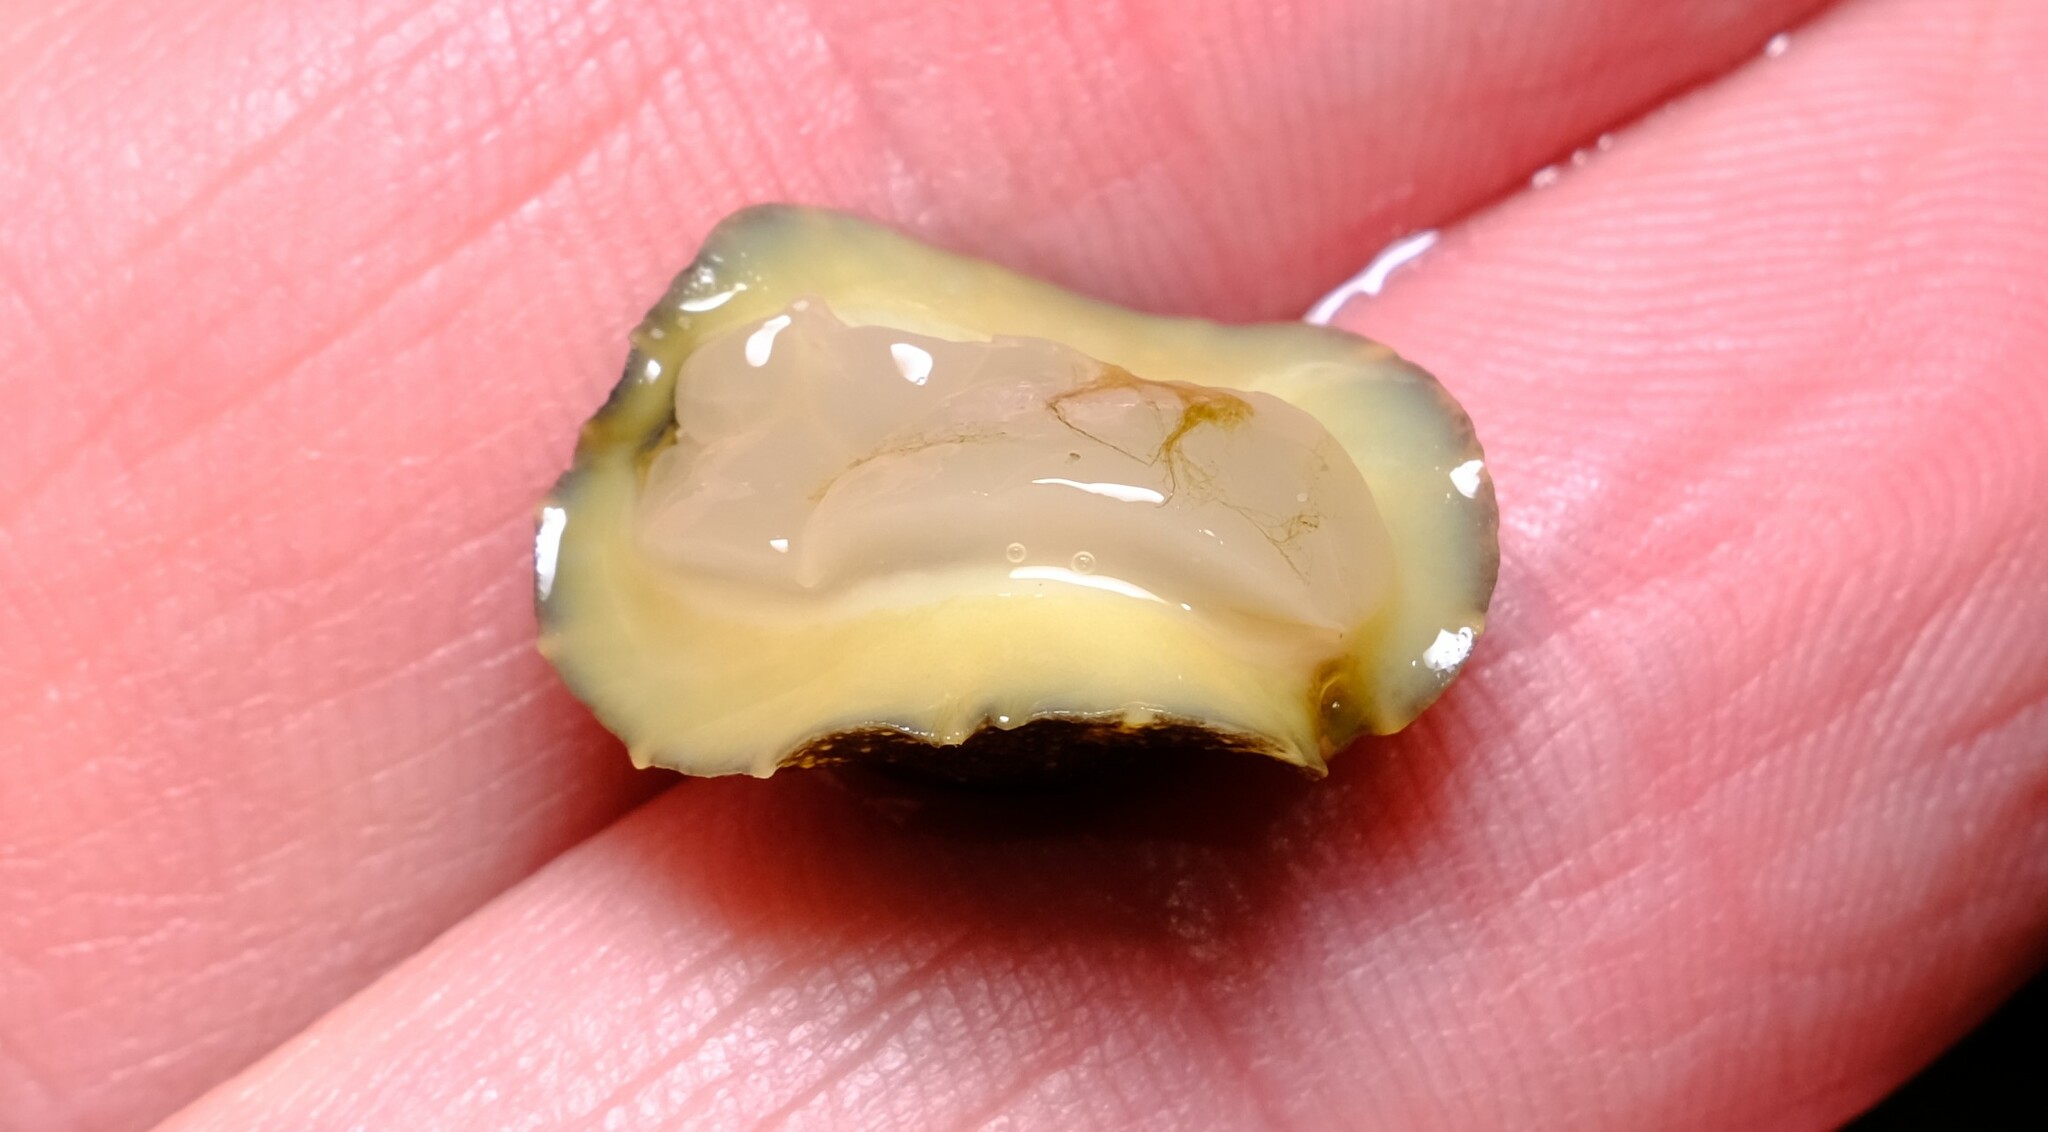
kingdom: Animalia
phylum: Mollusca
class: Gastropoda
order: Systellommatophora
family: Onchidiidae
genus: Onchidella
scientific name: Onchidella nigricans
